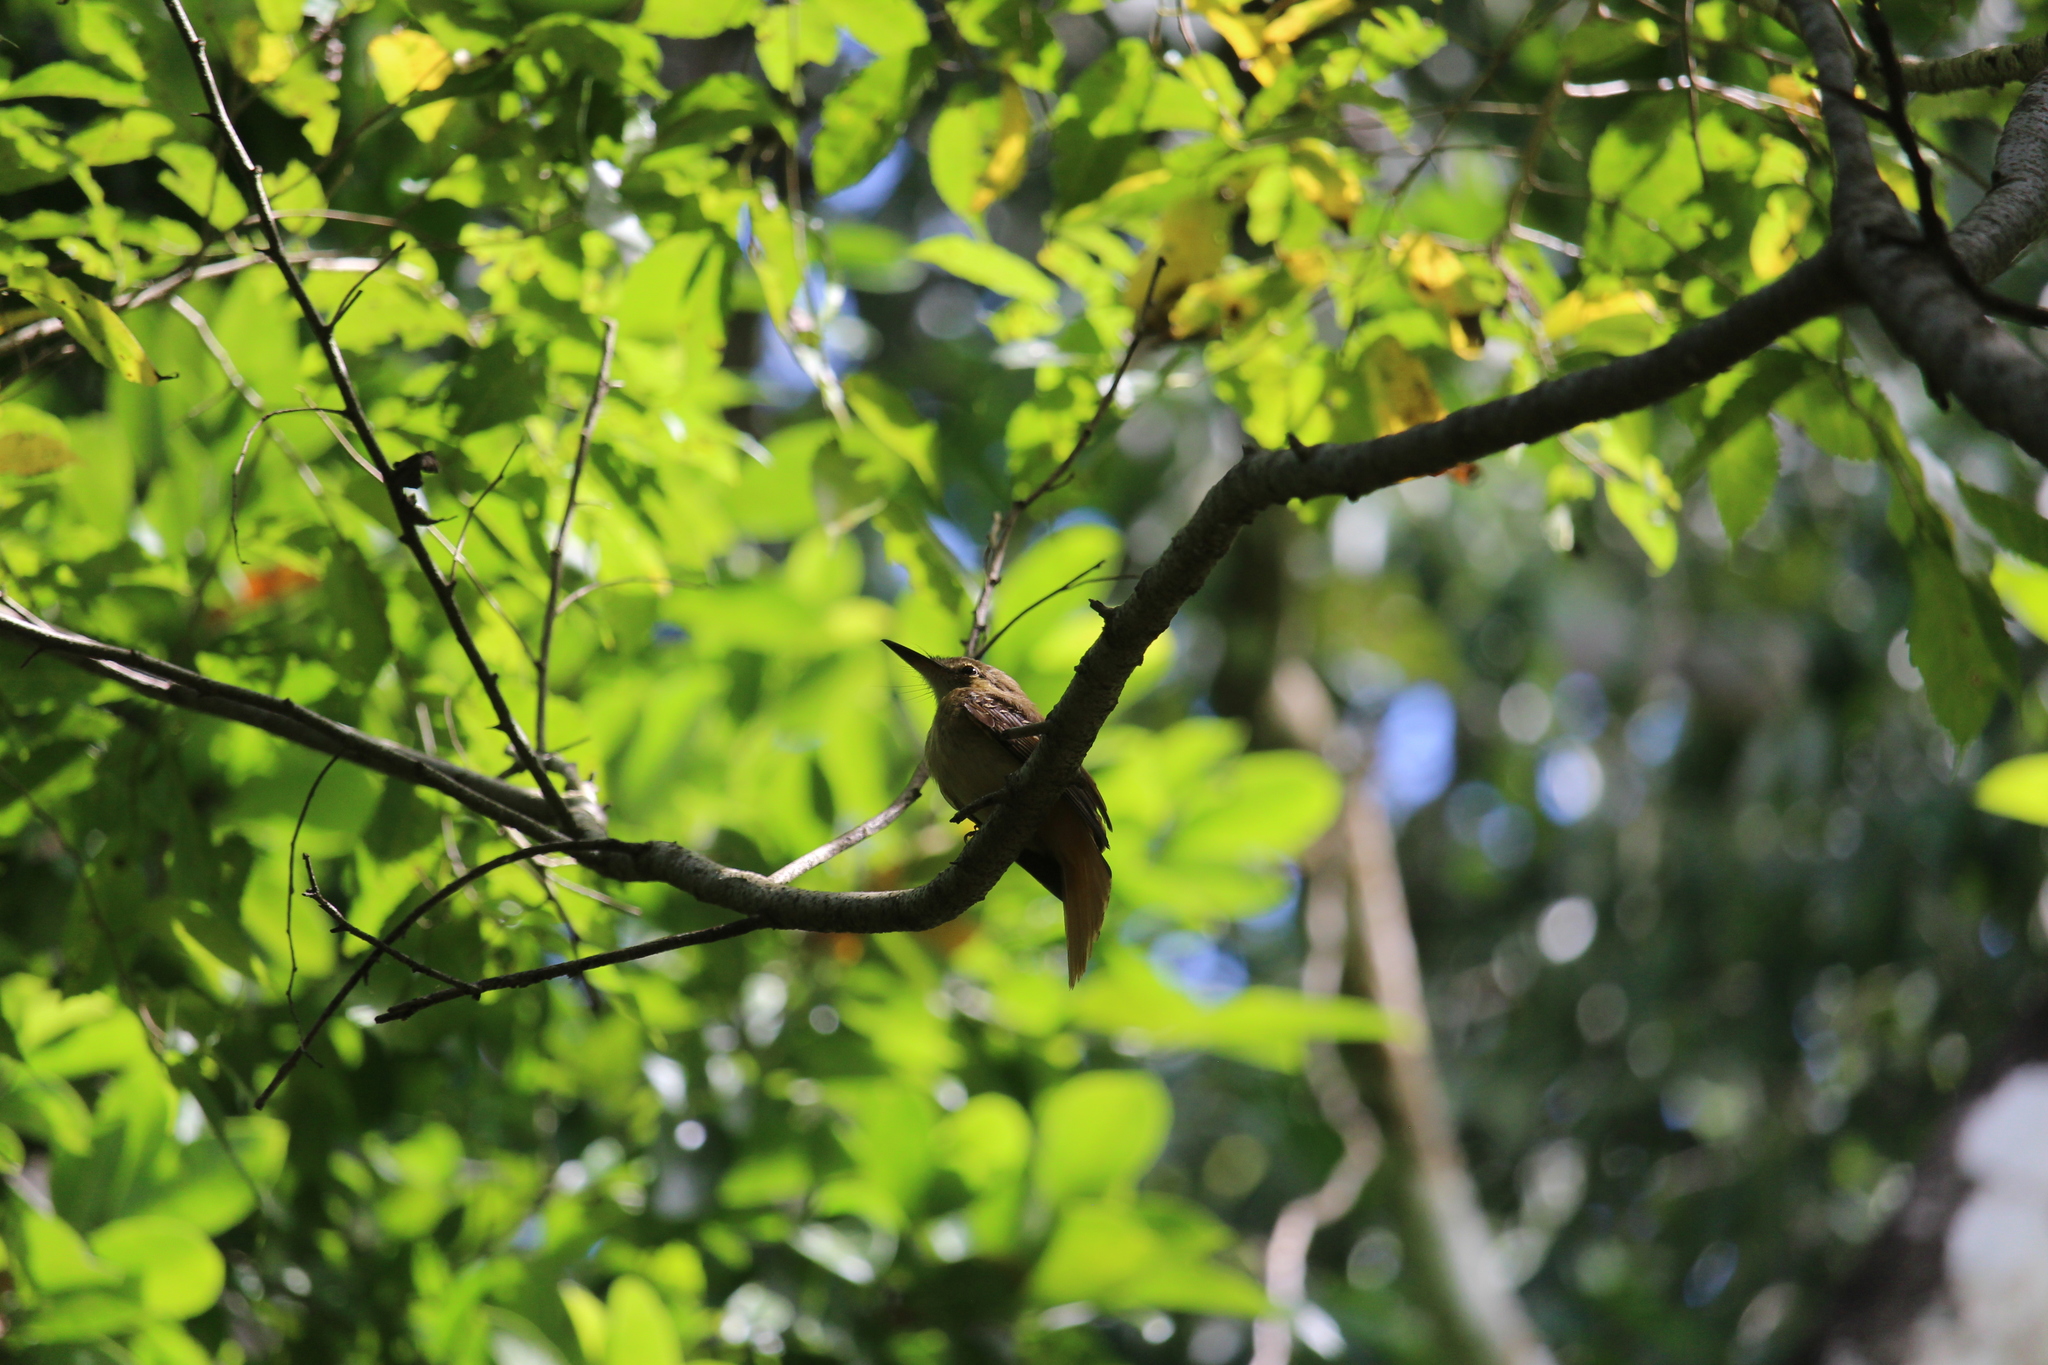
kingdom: Animalia
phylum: Chordata
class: Aves
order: Passeriformes
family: Tyrannidae
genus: Onychorhynchus
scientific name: Onychorhynchus coronatus
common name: Royal flycatcher
